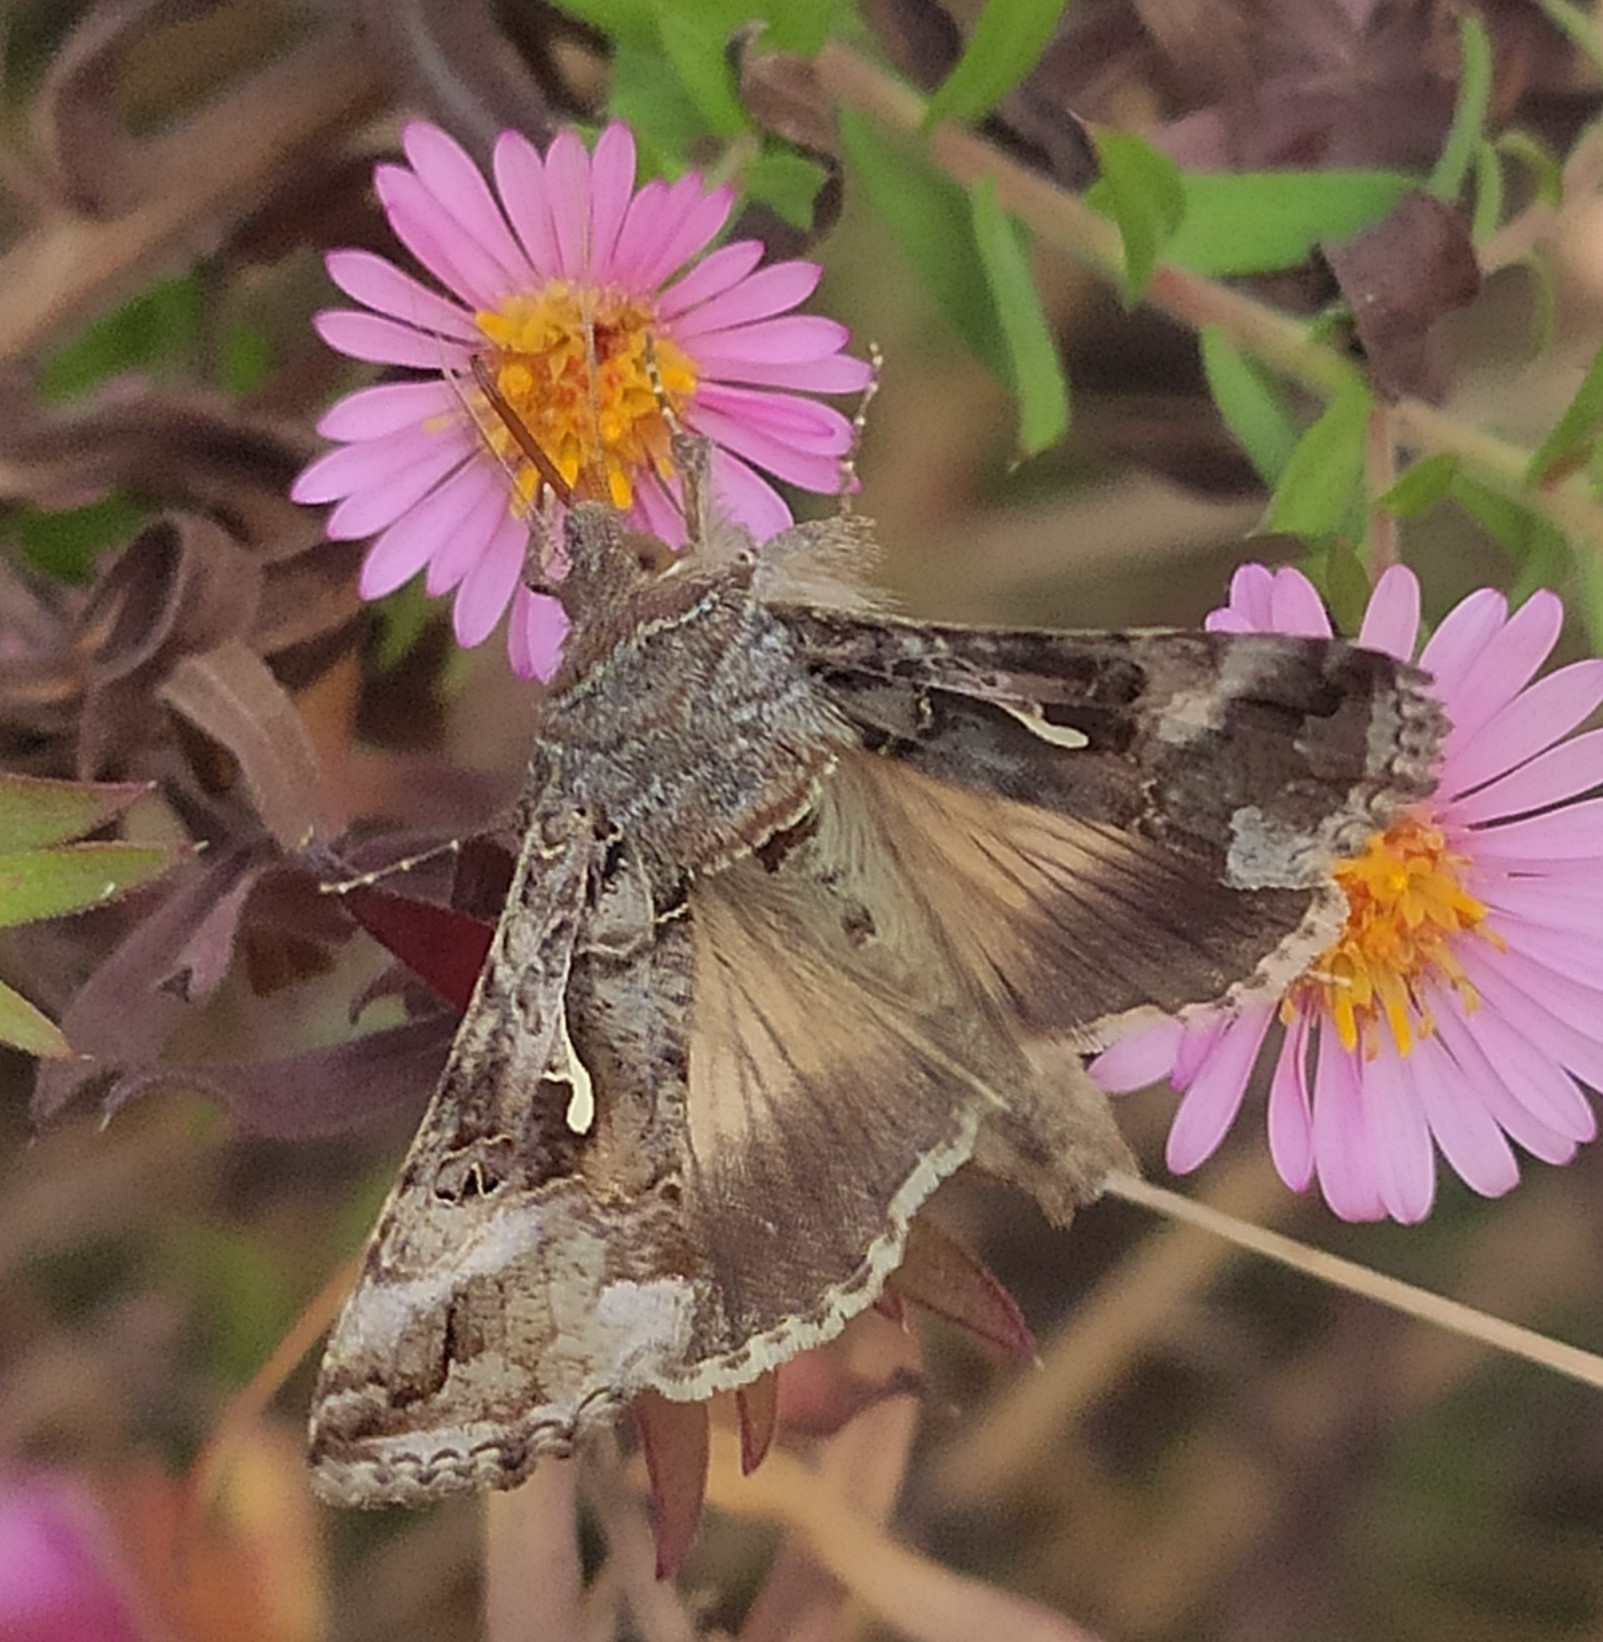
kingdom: Animalia
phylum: Arthropoda
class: Insecta
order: Lepidoptera
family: Noctuidae
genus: Autographa
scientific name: Autographa gamma
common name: Silver y
